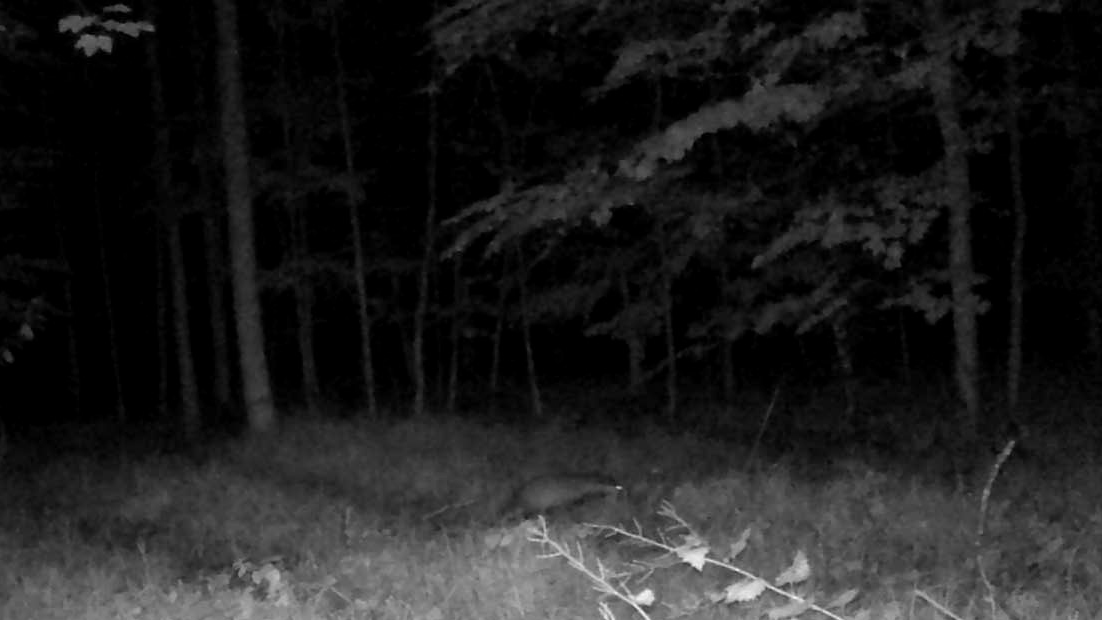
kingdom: Animalia
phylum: Chordata
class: Mammalia
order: Carnivora
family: Mustelidae
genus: Meles
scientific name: Meles meles
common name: Eurasian badger
